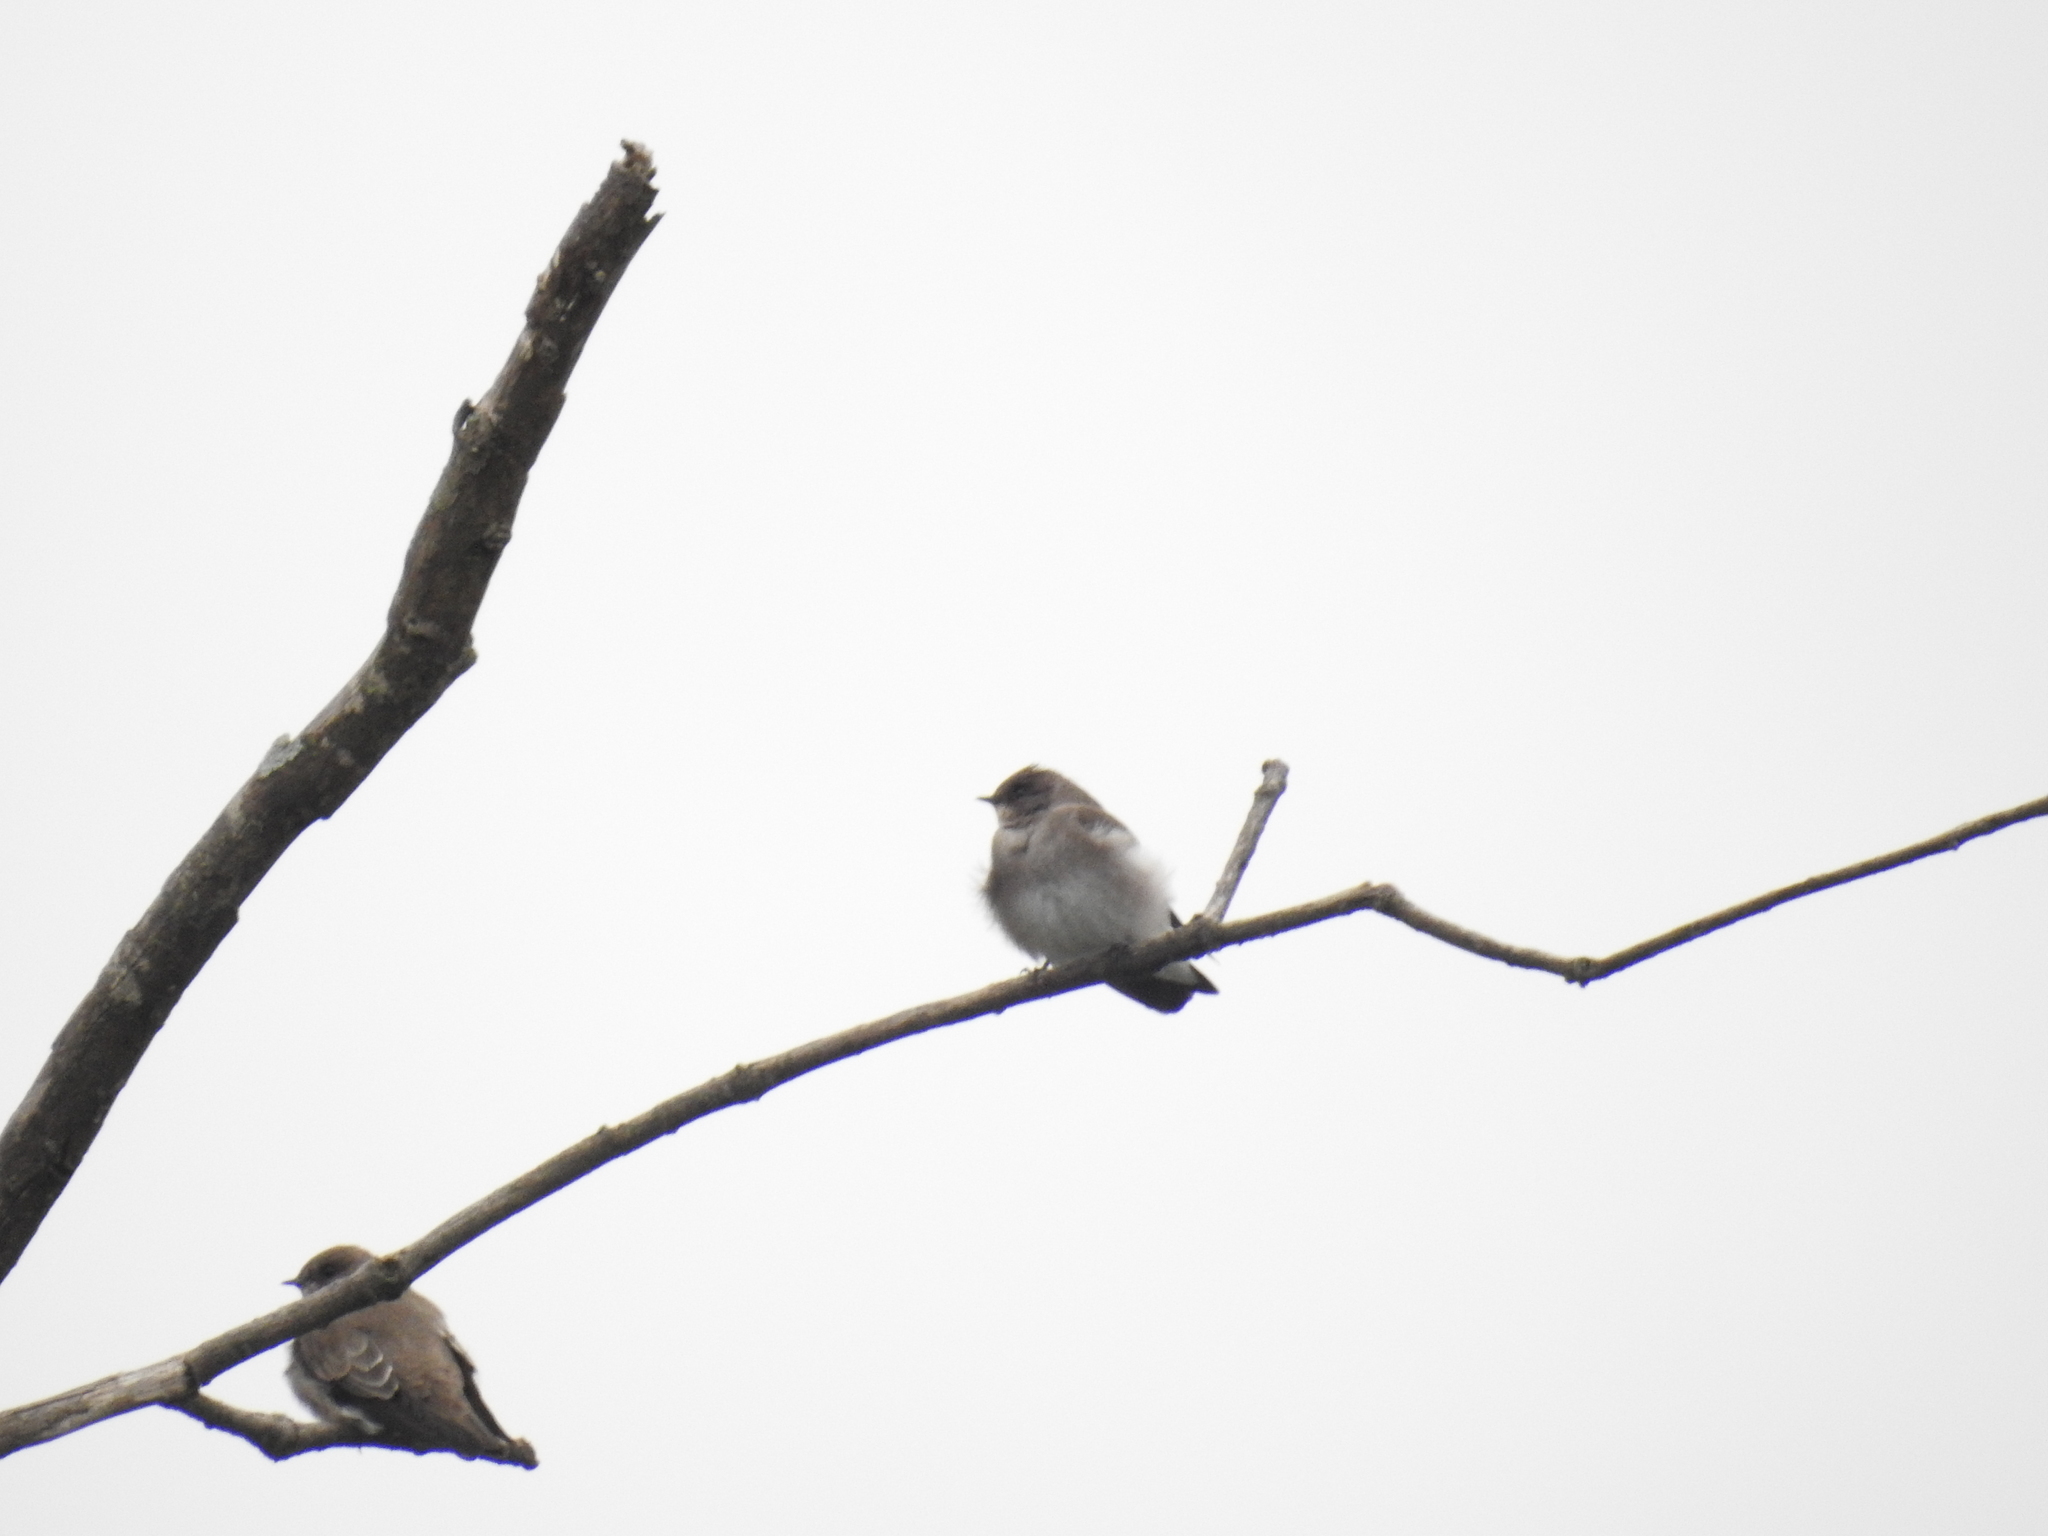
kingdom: Animalia
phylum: Chordata
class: Aves
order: Passeriformes
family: Hirundinidae
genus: Stelgidopteryx
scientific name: Stelgidopteryx serripennis
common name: Northern rough-winged swallow
